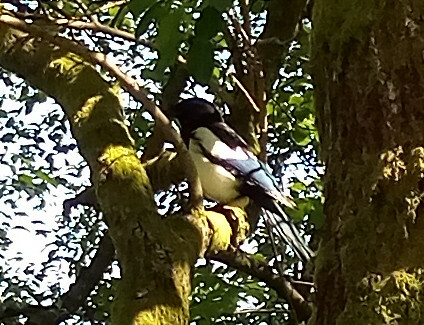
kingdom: Animalia
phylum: Chordata
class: Aves
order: Passeriformes
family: Corvidae
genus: Pica
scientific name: Pica pica
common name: Eurasian magpie
